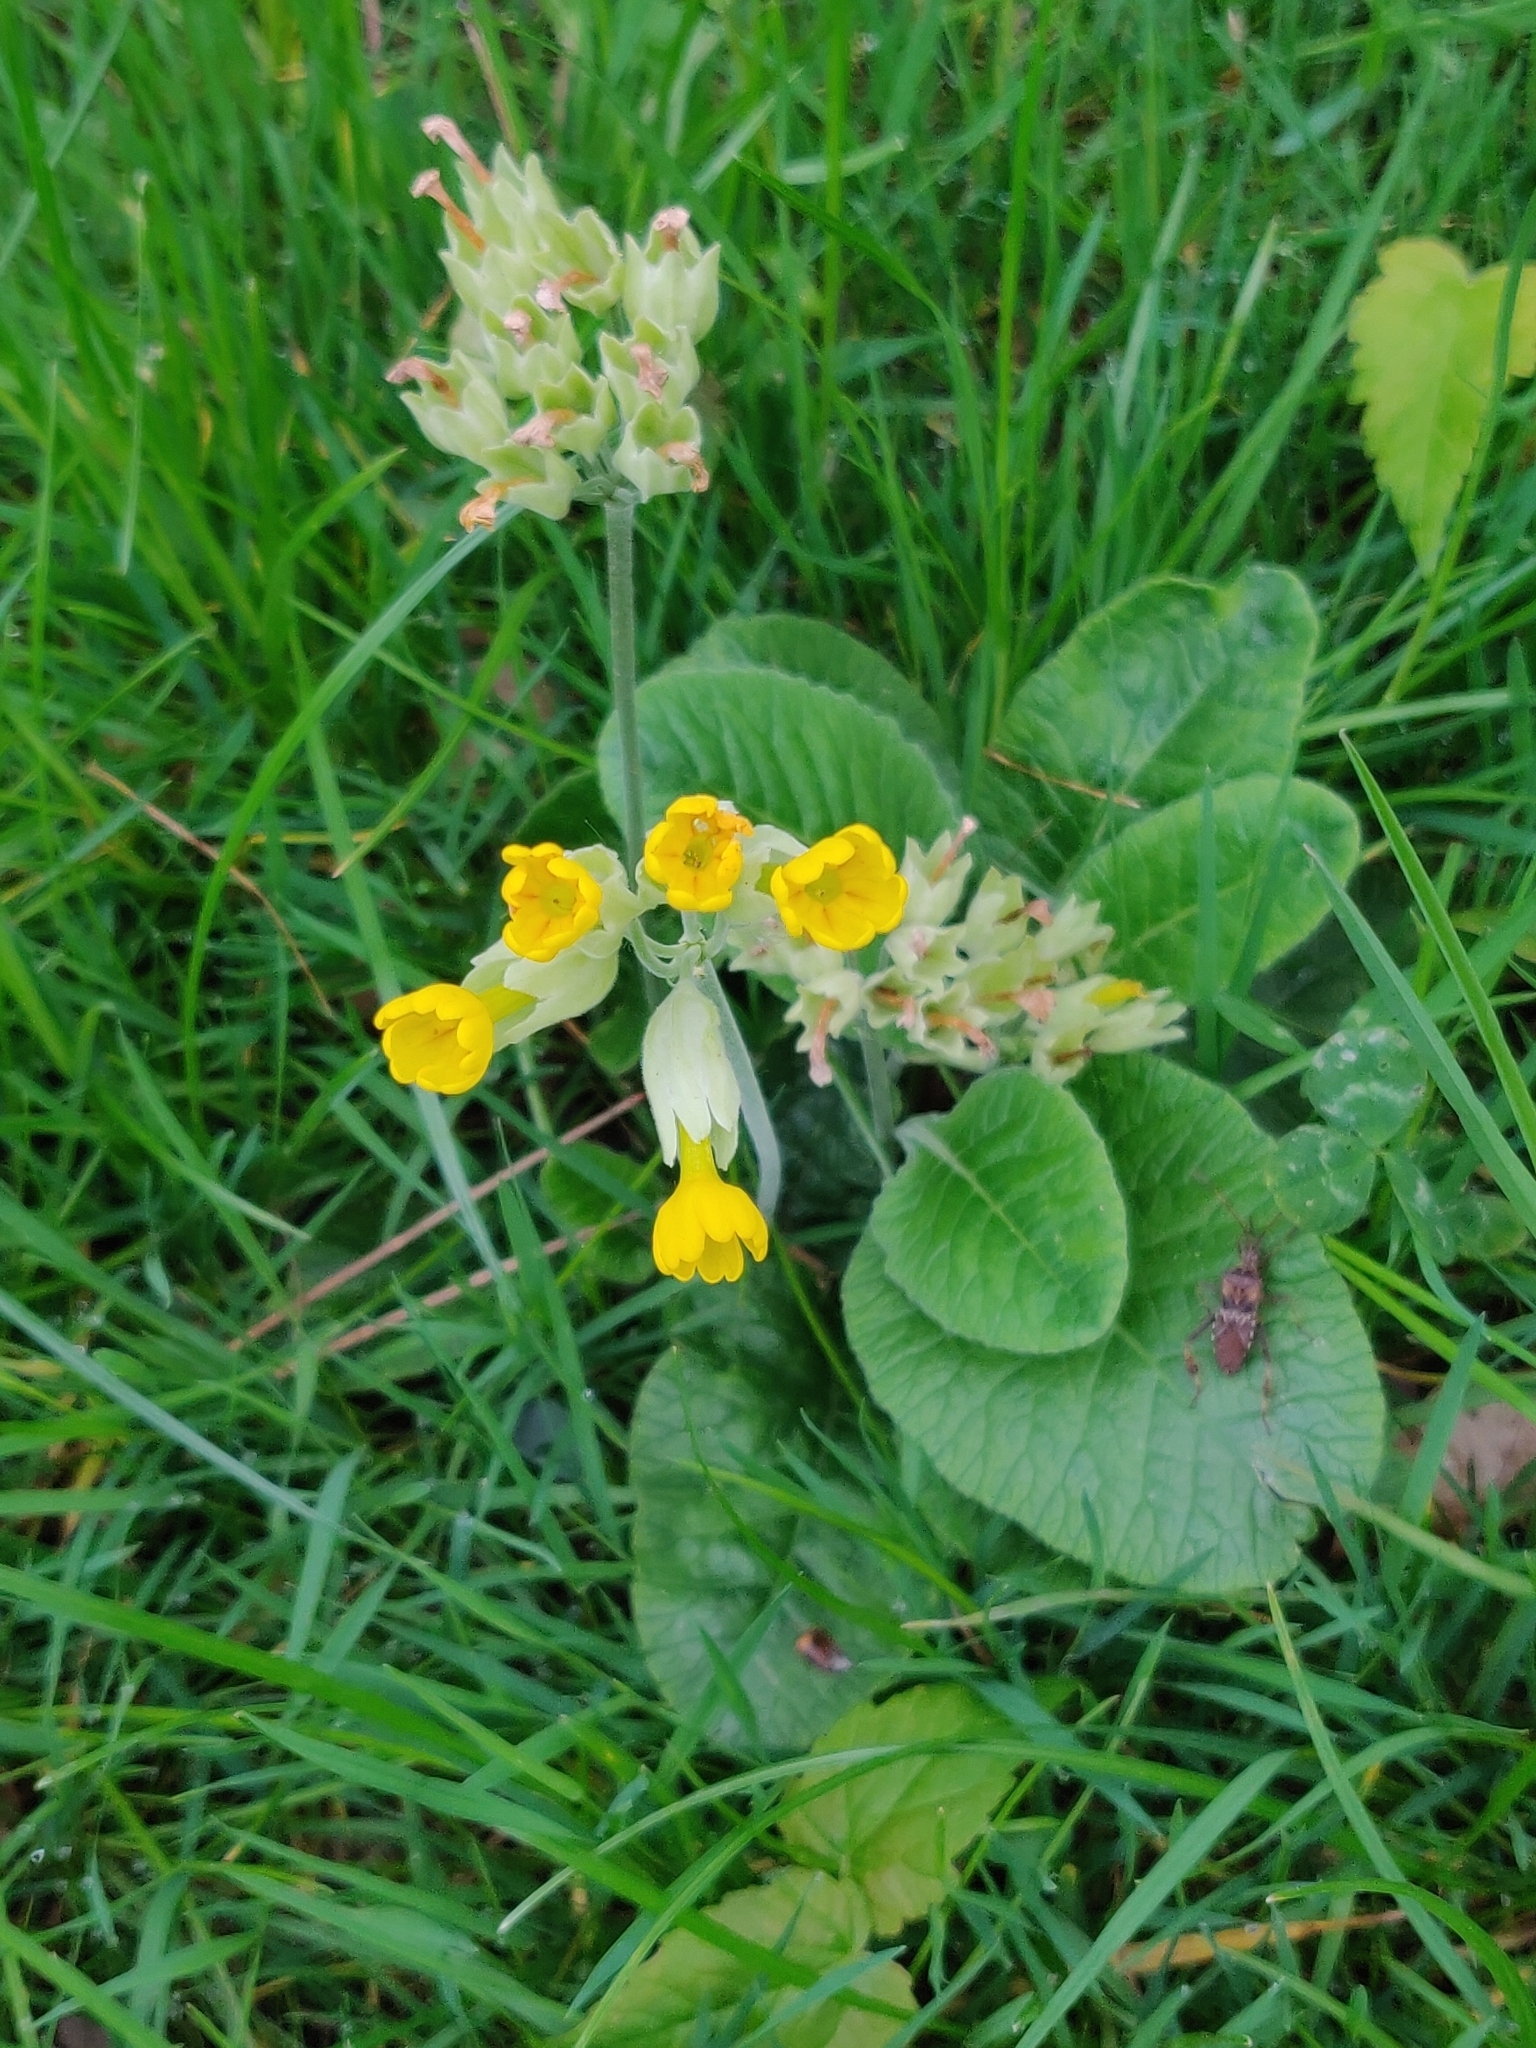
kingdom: Plantae
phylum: Tracheophyta
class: Magnoliopsida
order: Ericales
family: Primulaceae
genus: Primula
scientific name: Primula veris
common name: Cowslip
